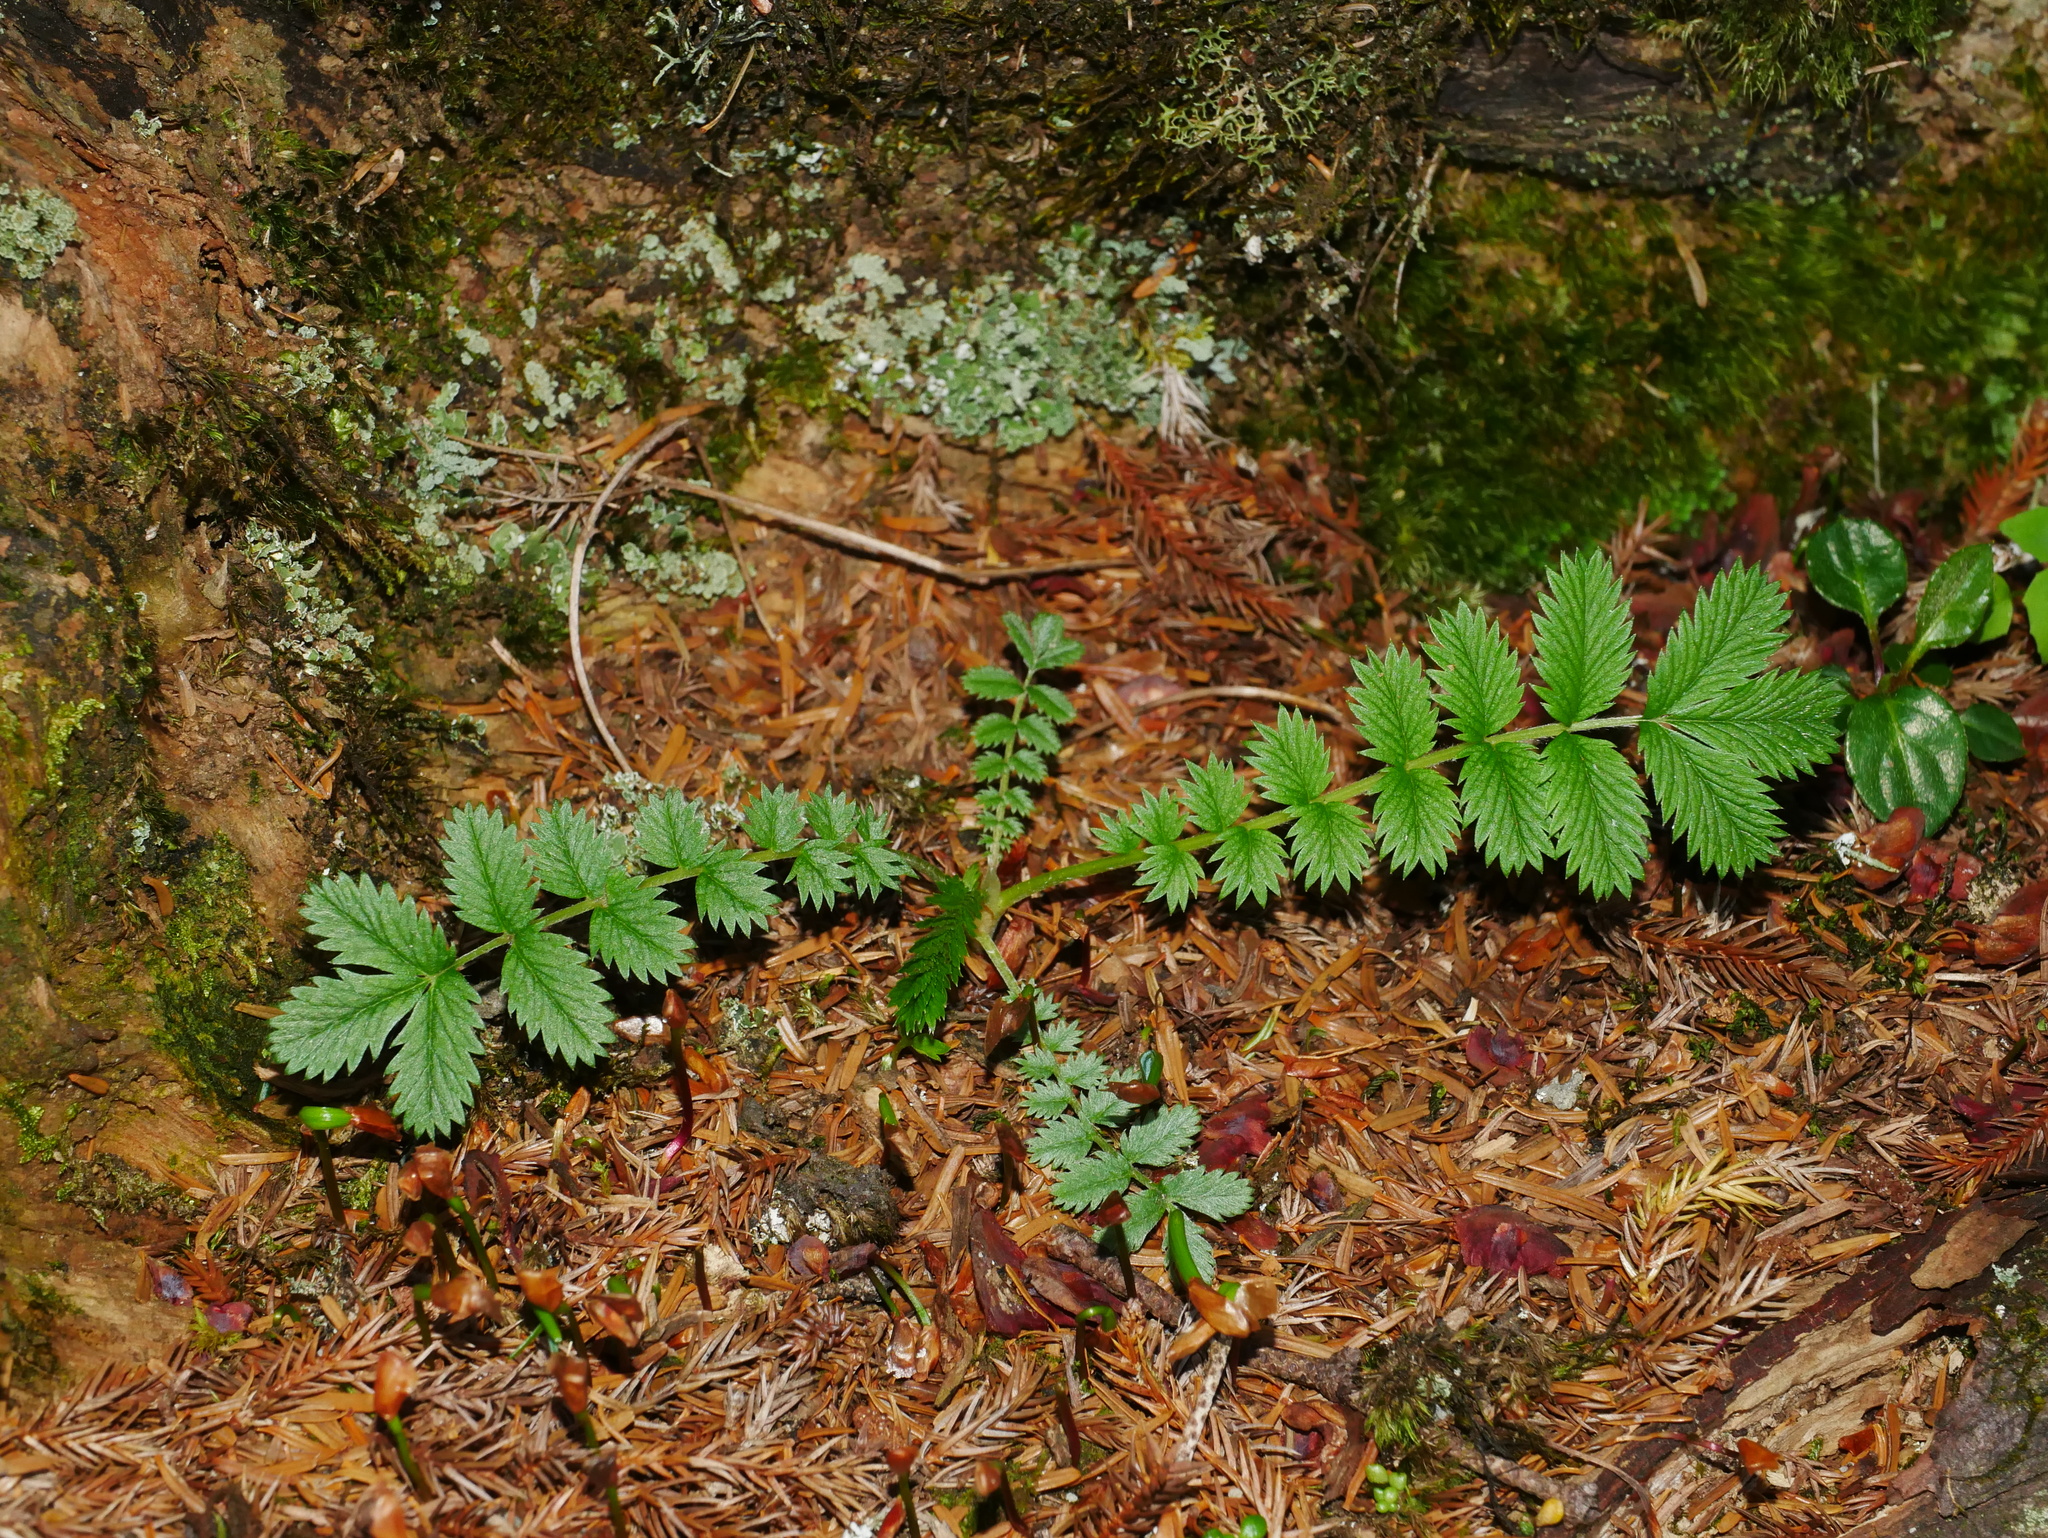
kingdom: Plantae
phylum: Tracheophyta
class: Magnoliopsida
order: Rosales
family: Rosaceae
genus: Argentina
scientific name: Argentina leuconota
